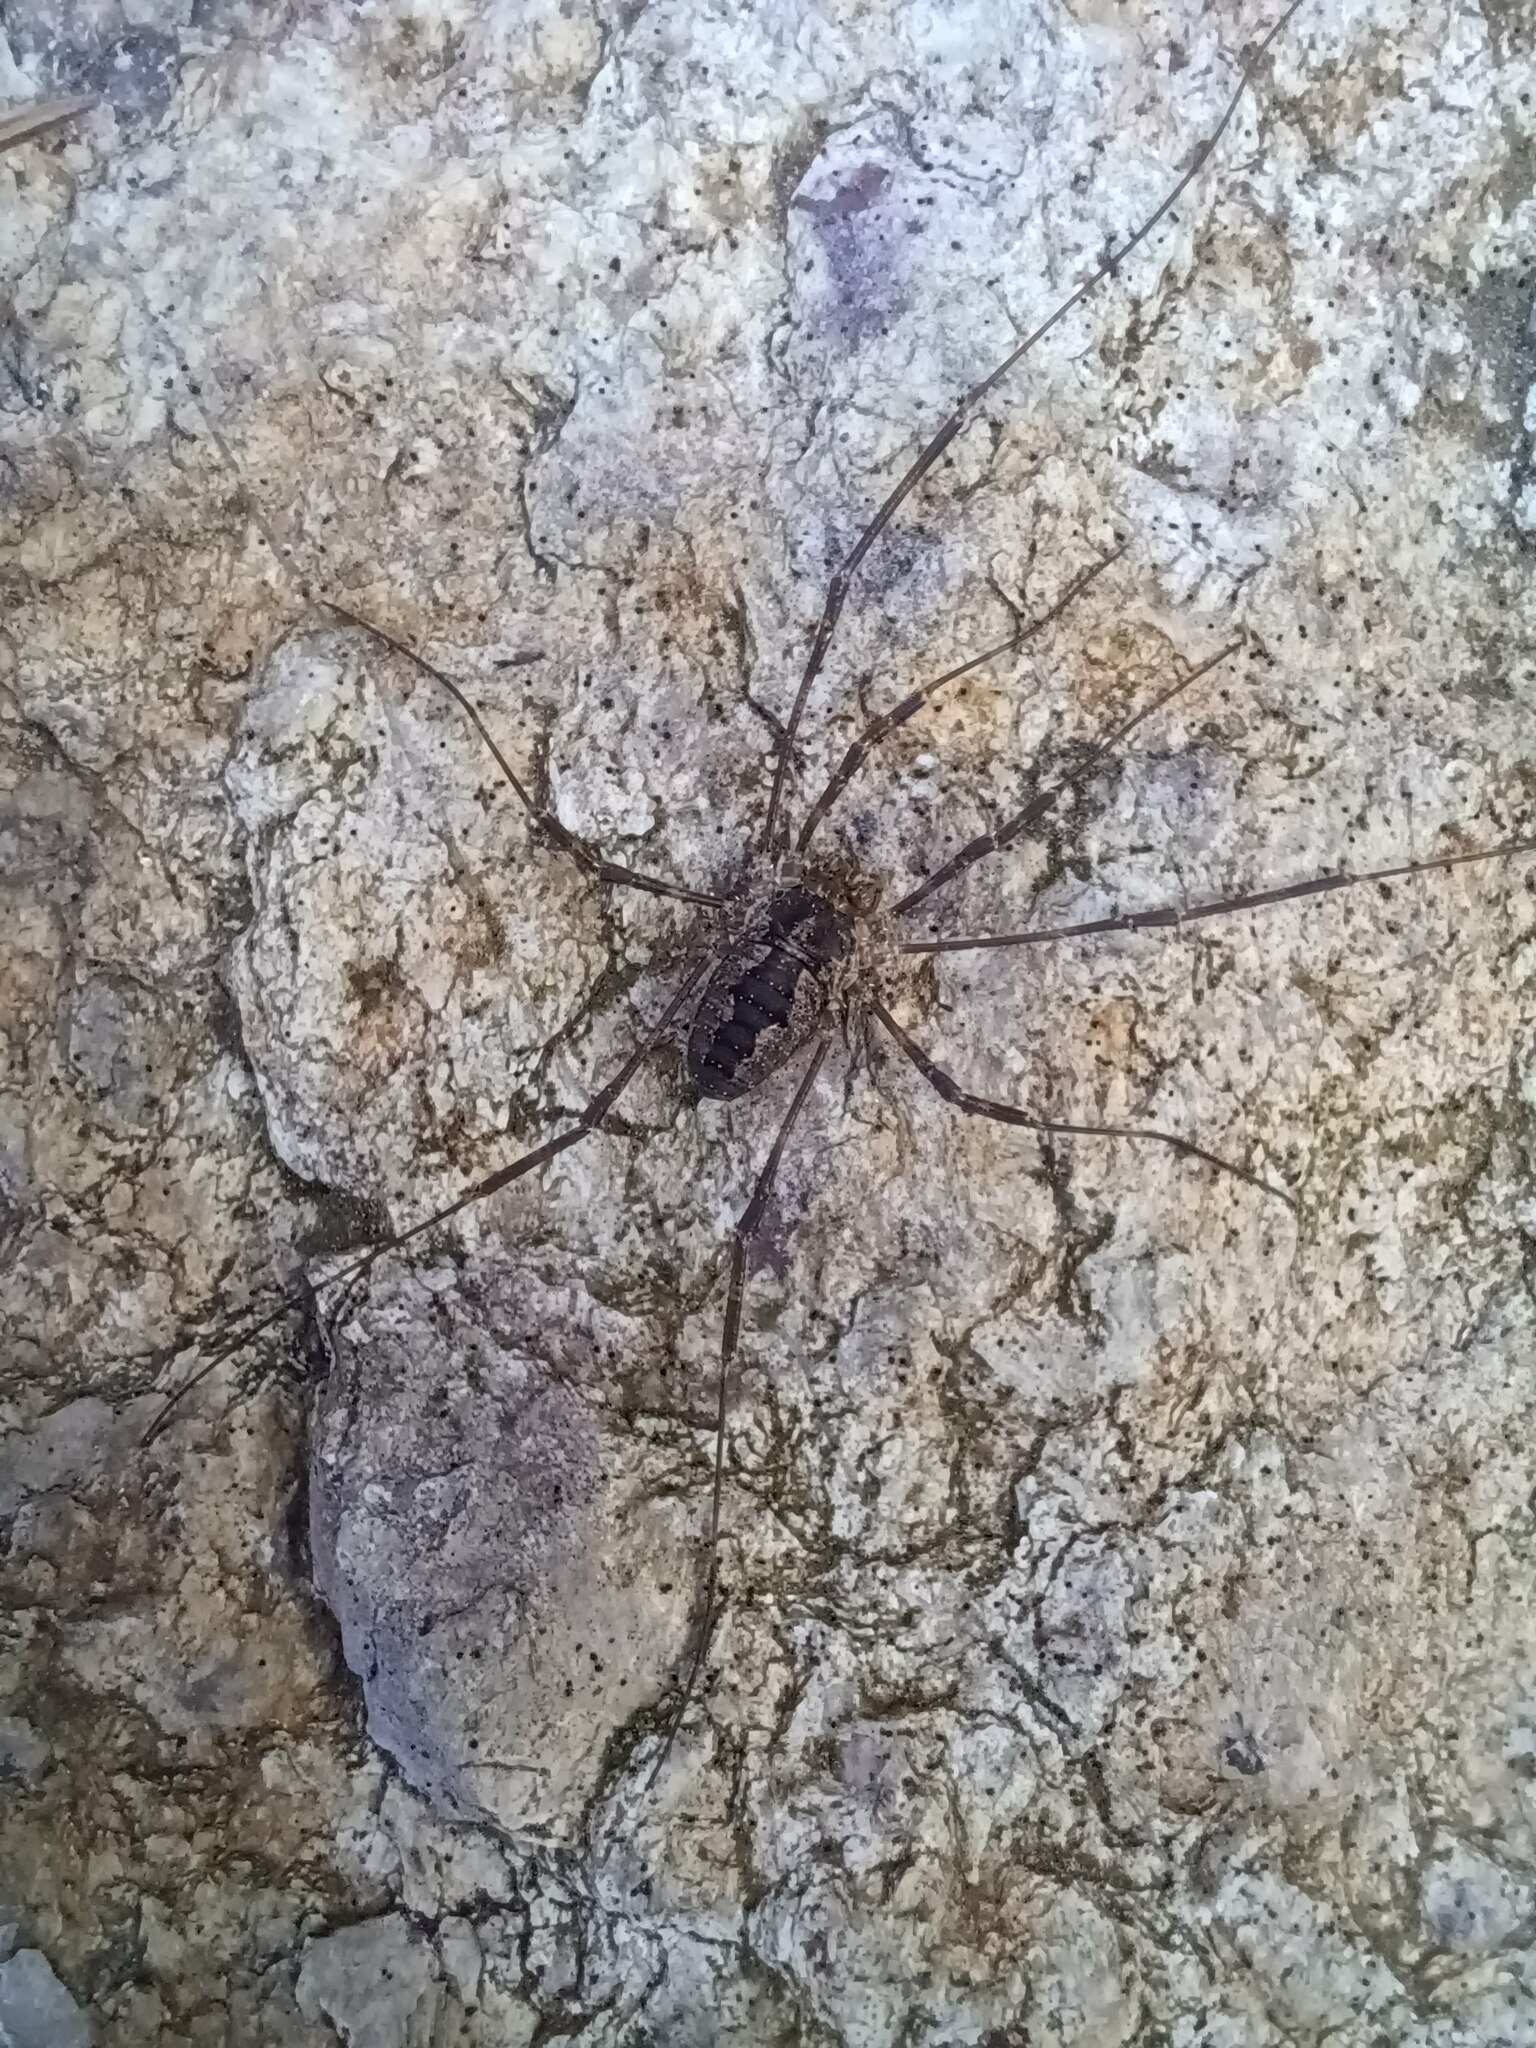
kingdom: Animalia
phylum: Arthropoda
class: Arachnida
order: Opiliones
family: Phalangiidae
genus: Odiellus
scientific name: Odiellus pictus
